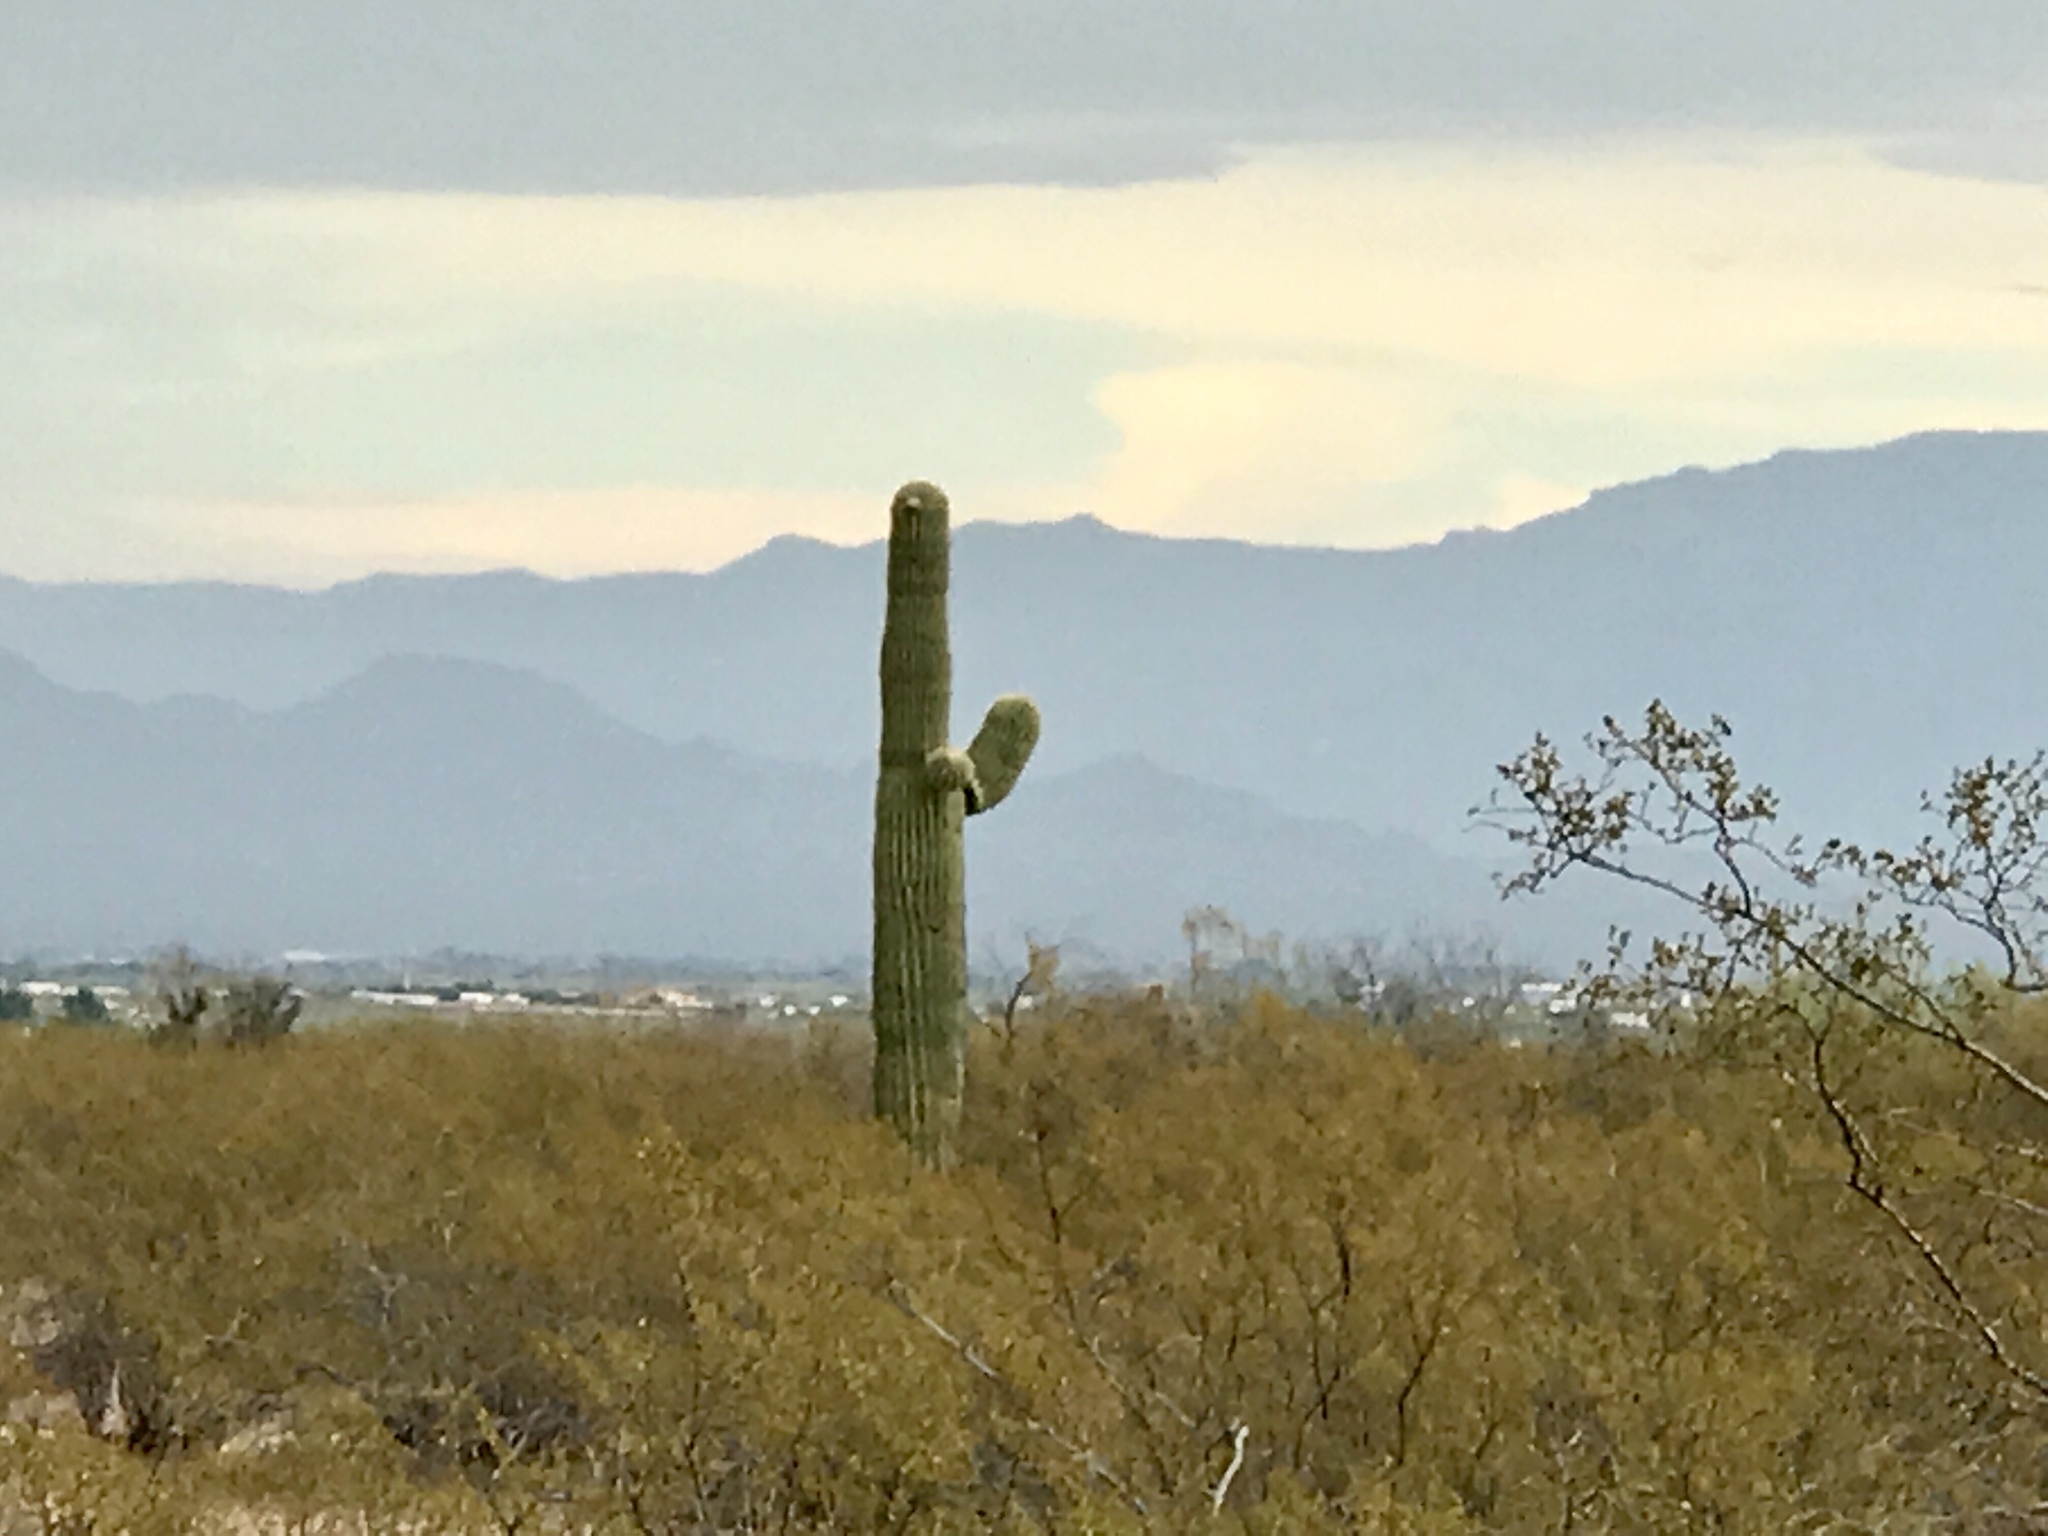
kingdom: Plantae
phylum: Tracheophyta
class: Magnoliopsida
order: Caryophyllales
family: Cactaceae
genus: Carnegiea
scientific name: Carnegiea gigantea
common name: Saguaro
